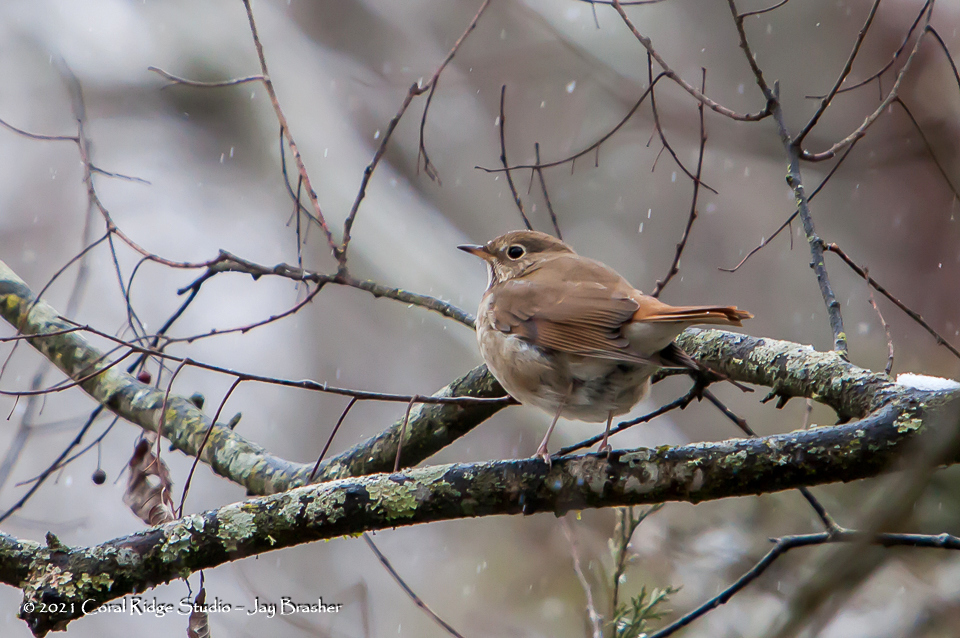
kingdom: Animalia
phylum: Chordata
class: Aves
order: Passeriformes
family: Turdidae
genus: Catharus
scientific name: Catharus guttatus
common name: Hermit thrush
